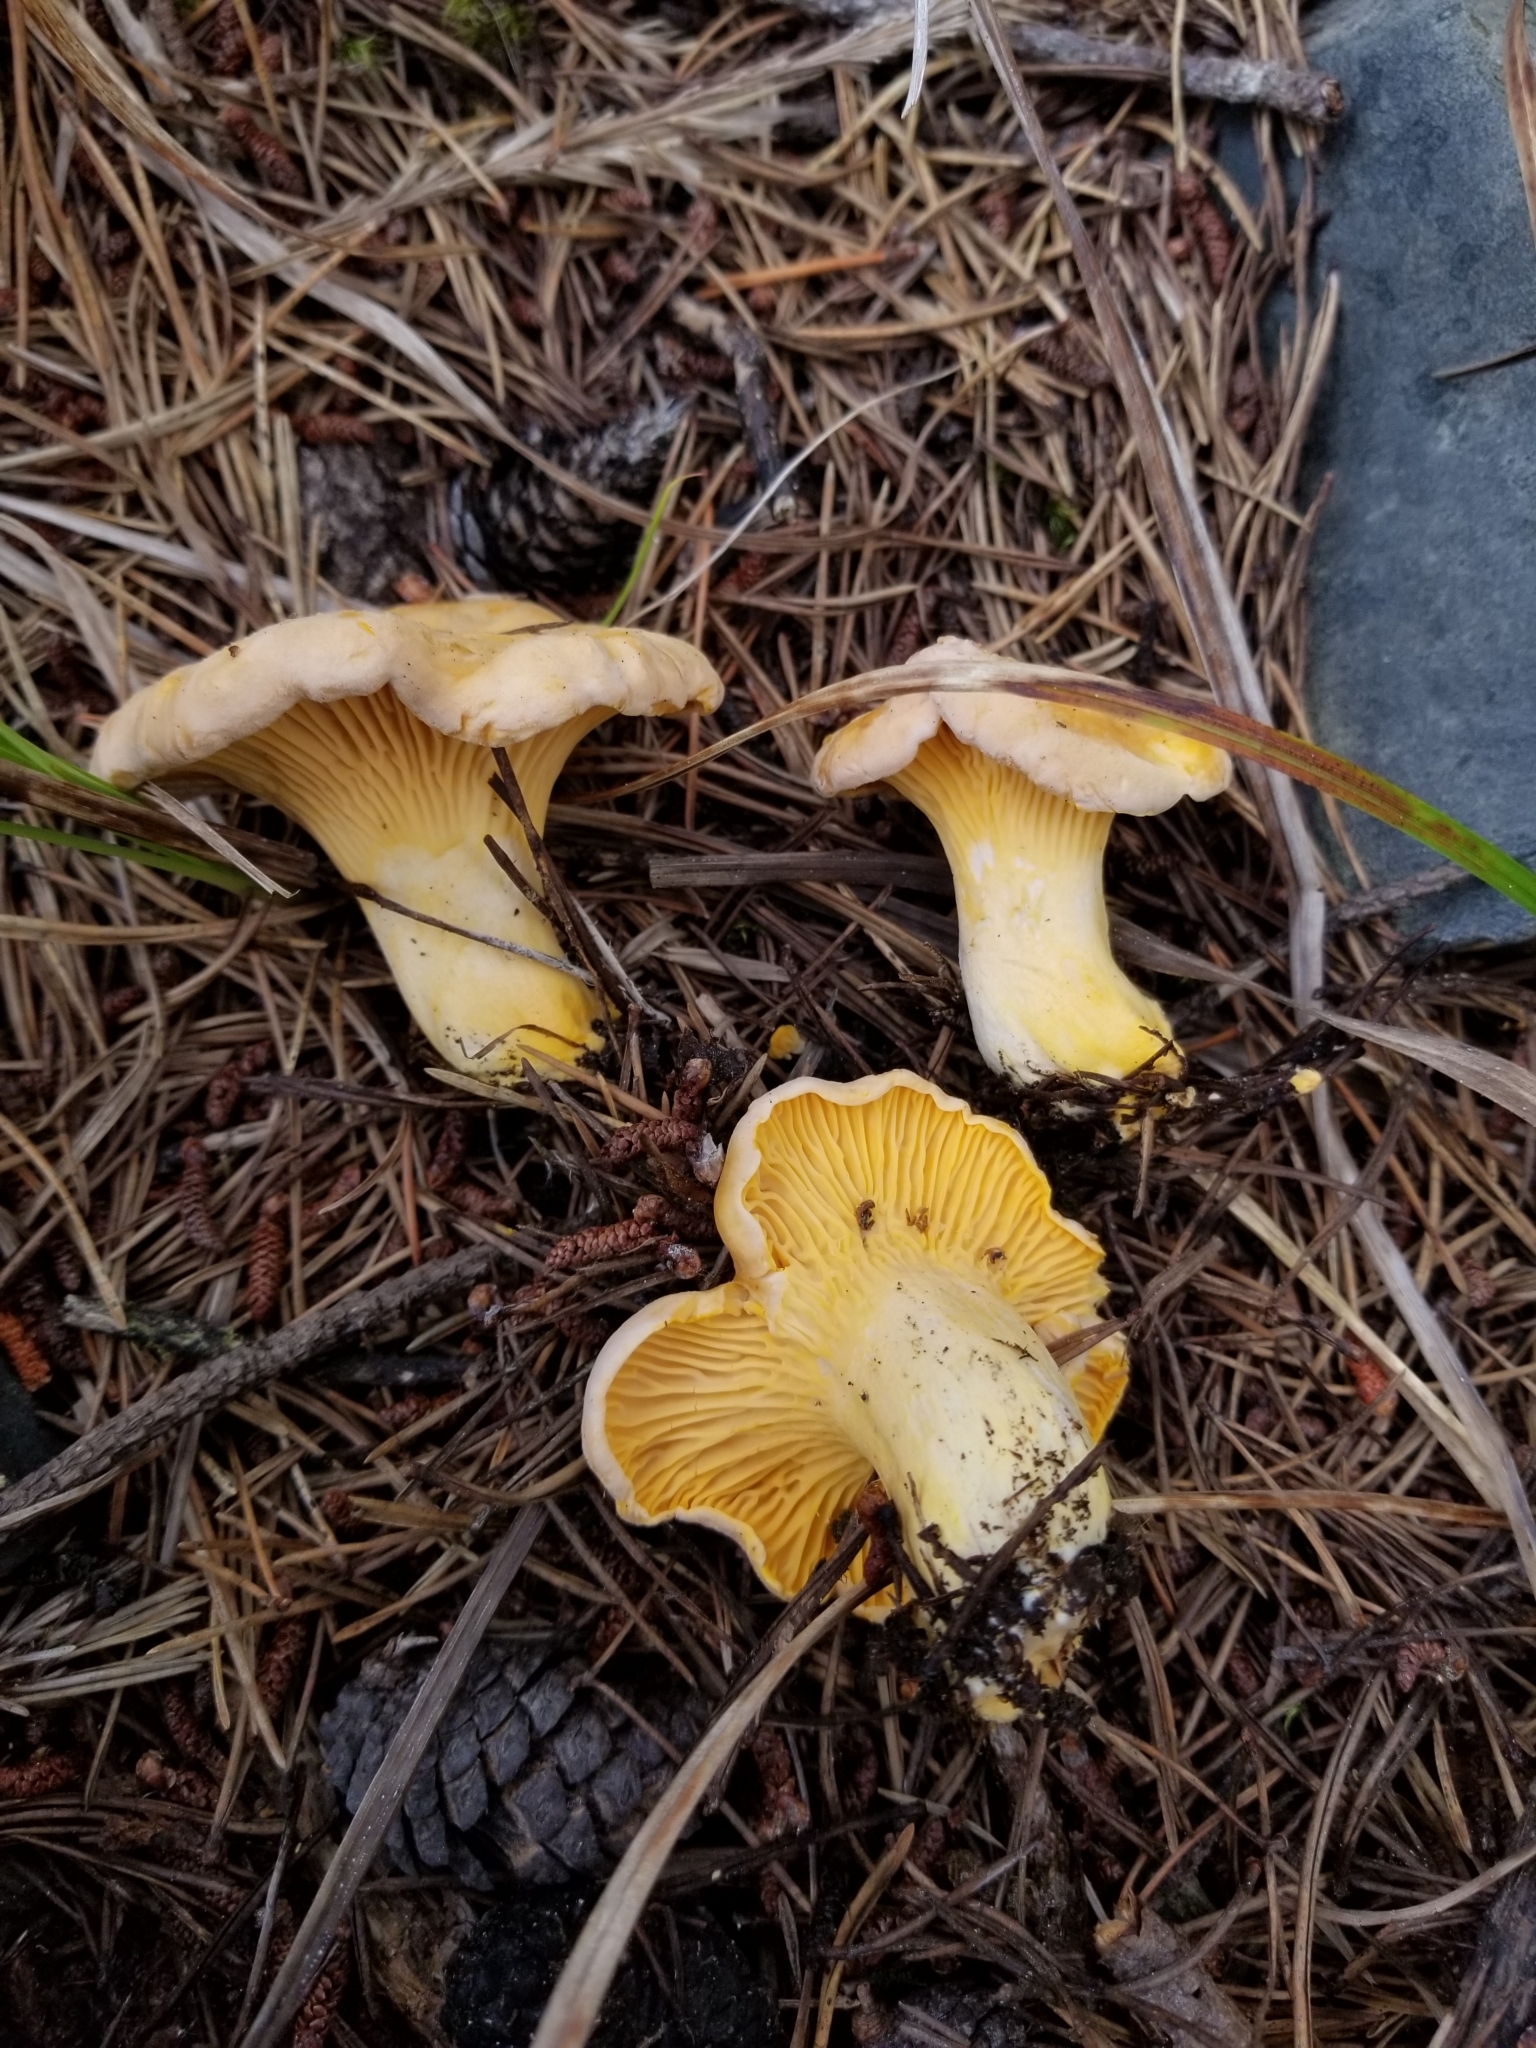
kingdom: Fungi
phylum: Basidiomycota
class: Agaricomycetes
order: Cantharellales
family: Hydnaceae
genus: Cantharellus
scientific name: Cantharellus roseocanus
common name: Rainbow chanterelle
